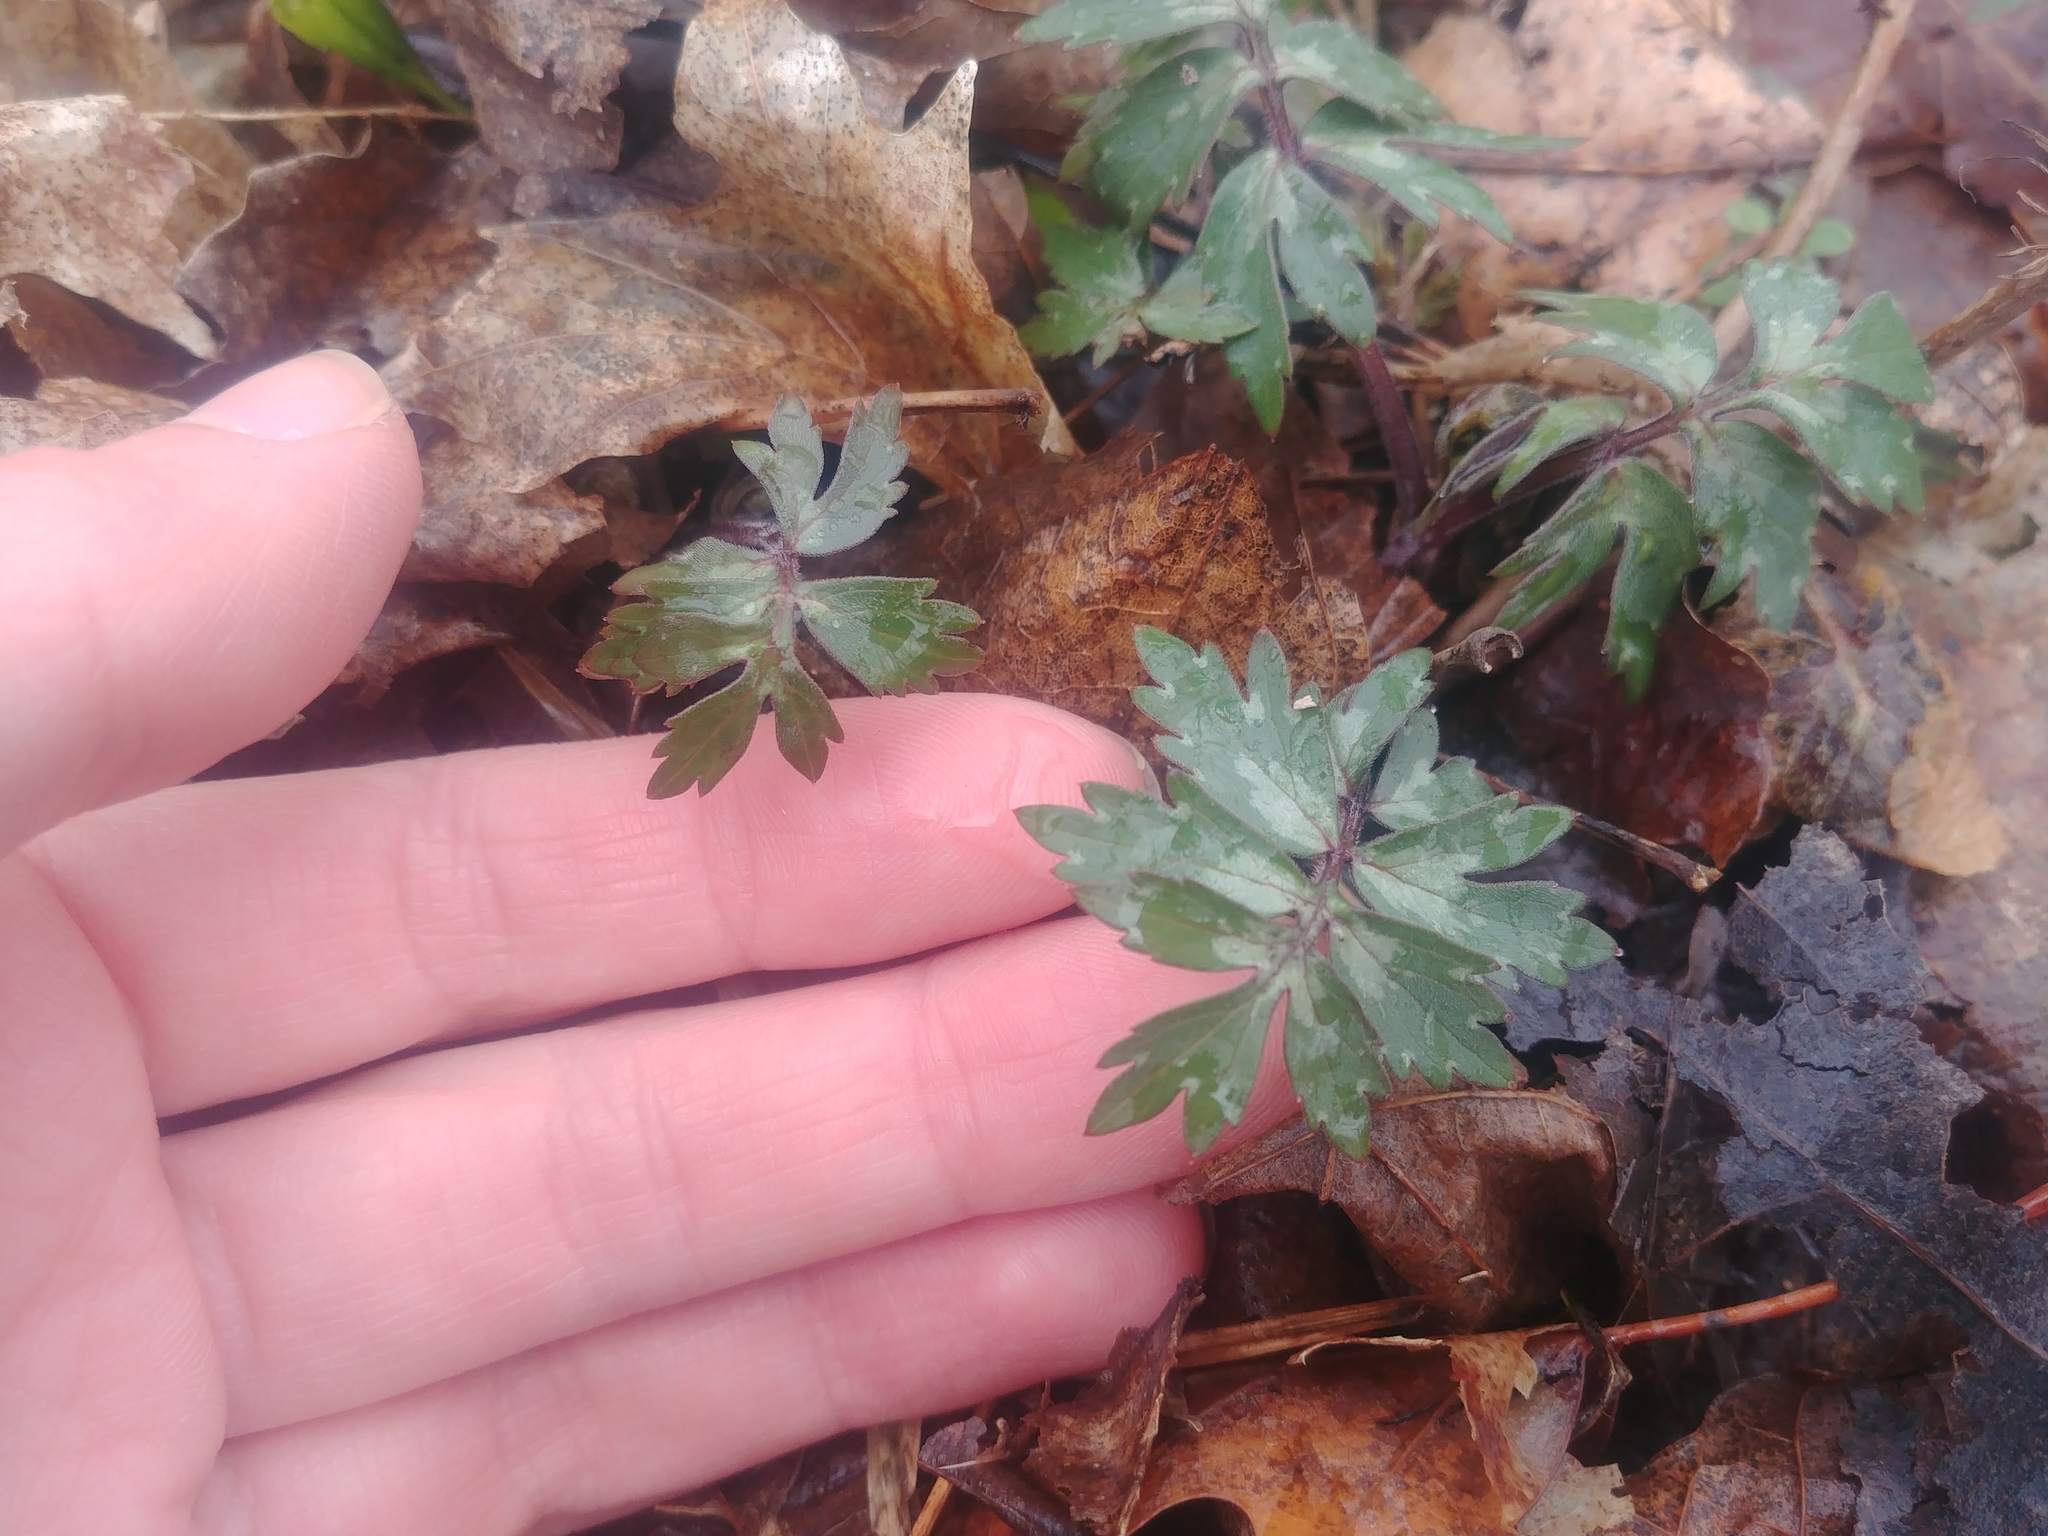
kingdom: Plantae
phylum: Tracheophyta
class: Magnoliopsida
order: Boraginales
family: Hydrophyllaceae
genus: Hydrophyllum
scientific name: Hydrophyllum virginianum
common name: Virginia waterleaf
